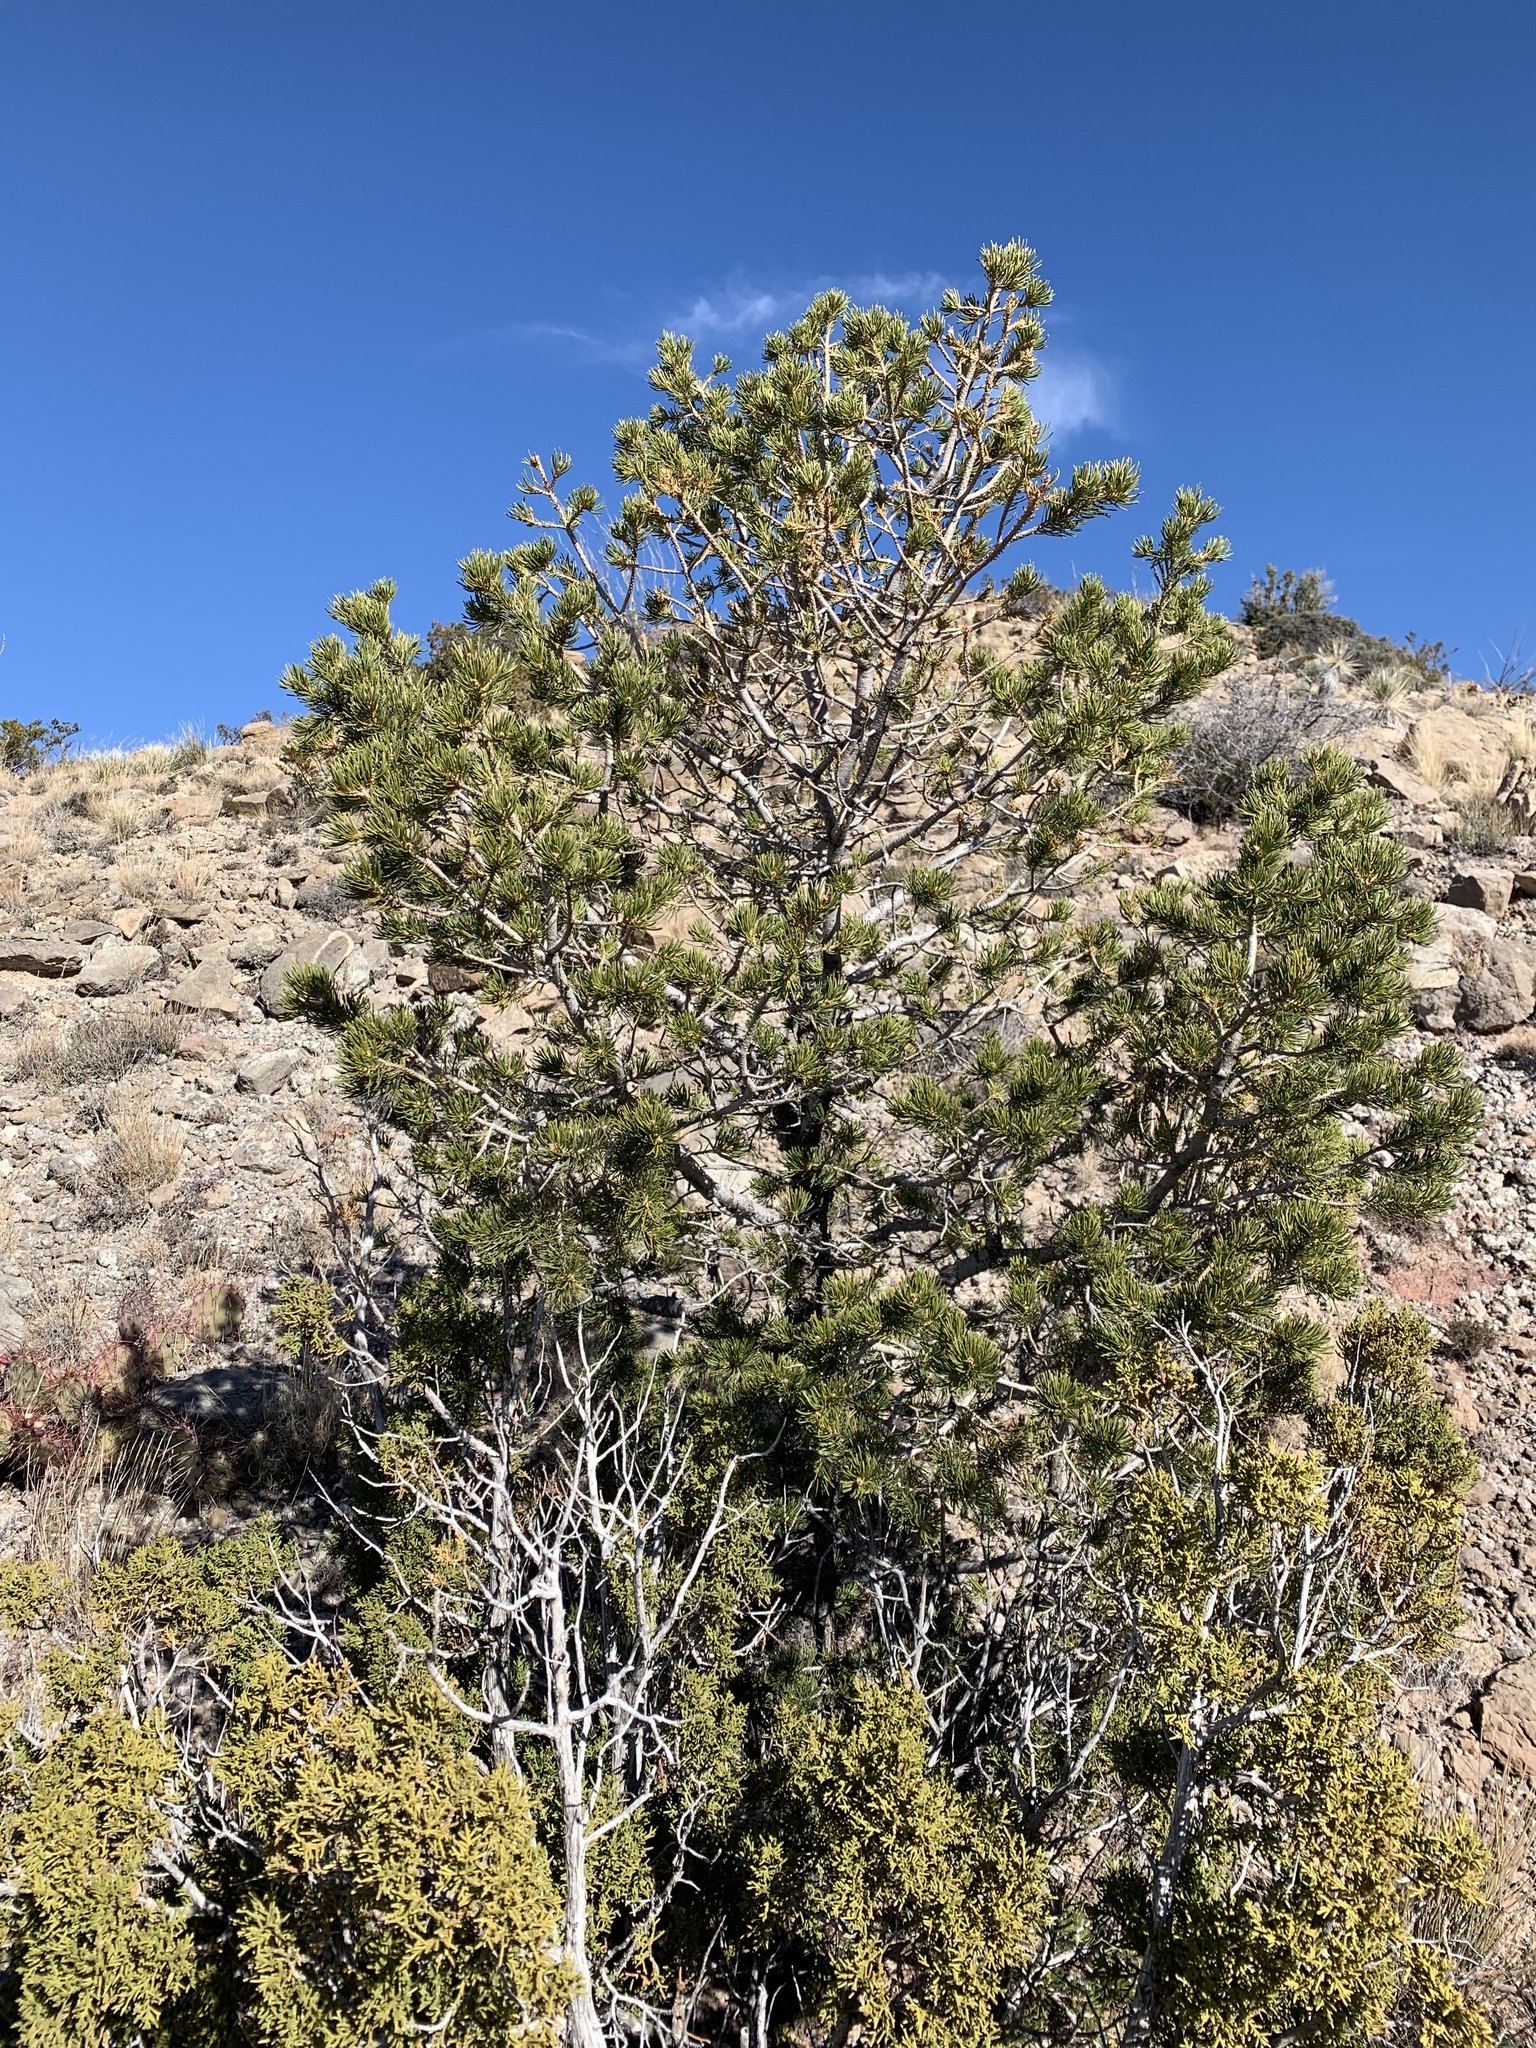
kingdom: Plantae
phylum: Tracheophyta
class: Pinopsida
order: Pinales
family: Pinaceae
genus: Pinus
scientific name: Pinus edulis
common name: Colorado pinyon
